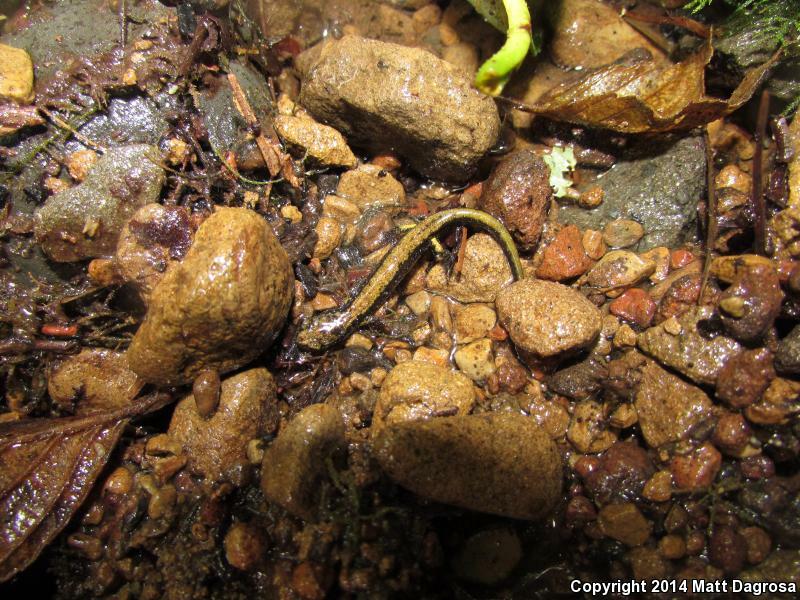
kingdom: Animalia
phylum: Chordata
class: Amphibia
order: Caudata
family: Plethodontidae
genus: Plethodon
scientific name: Plethodon dunni
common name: Dunn's salamander
